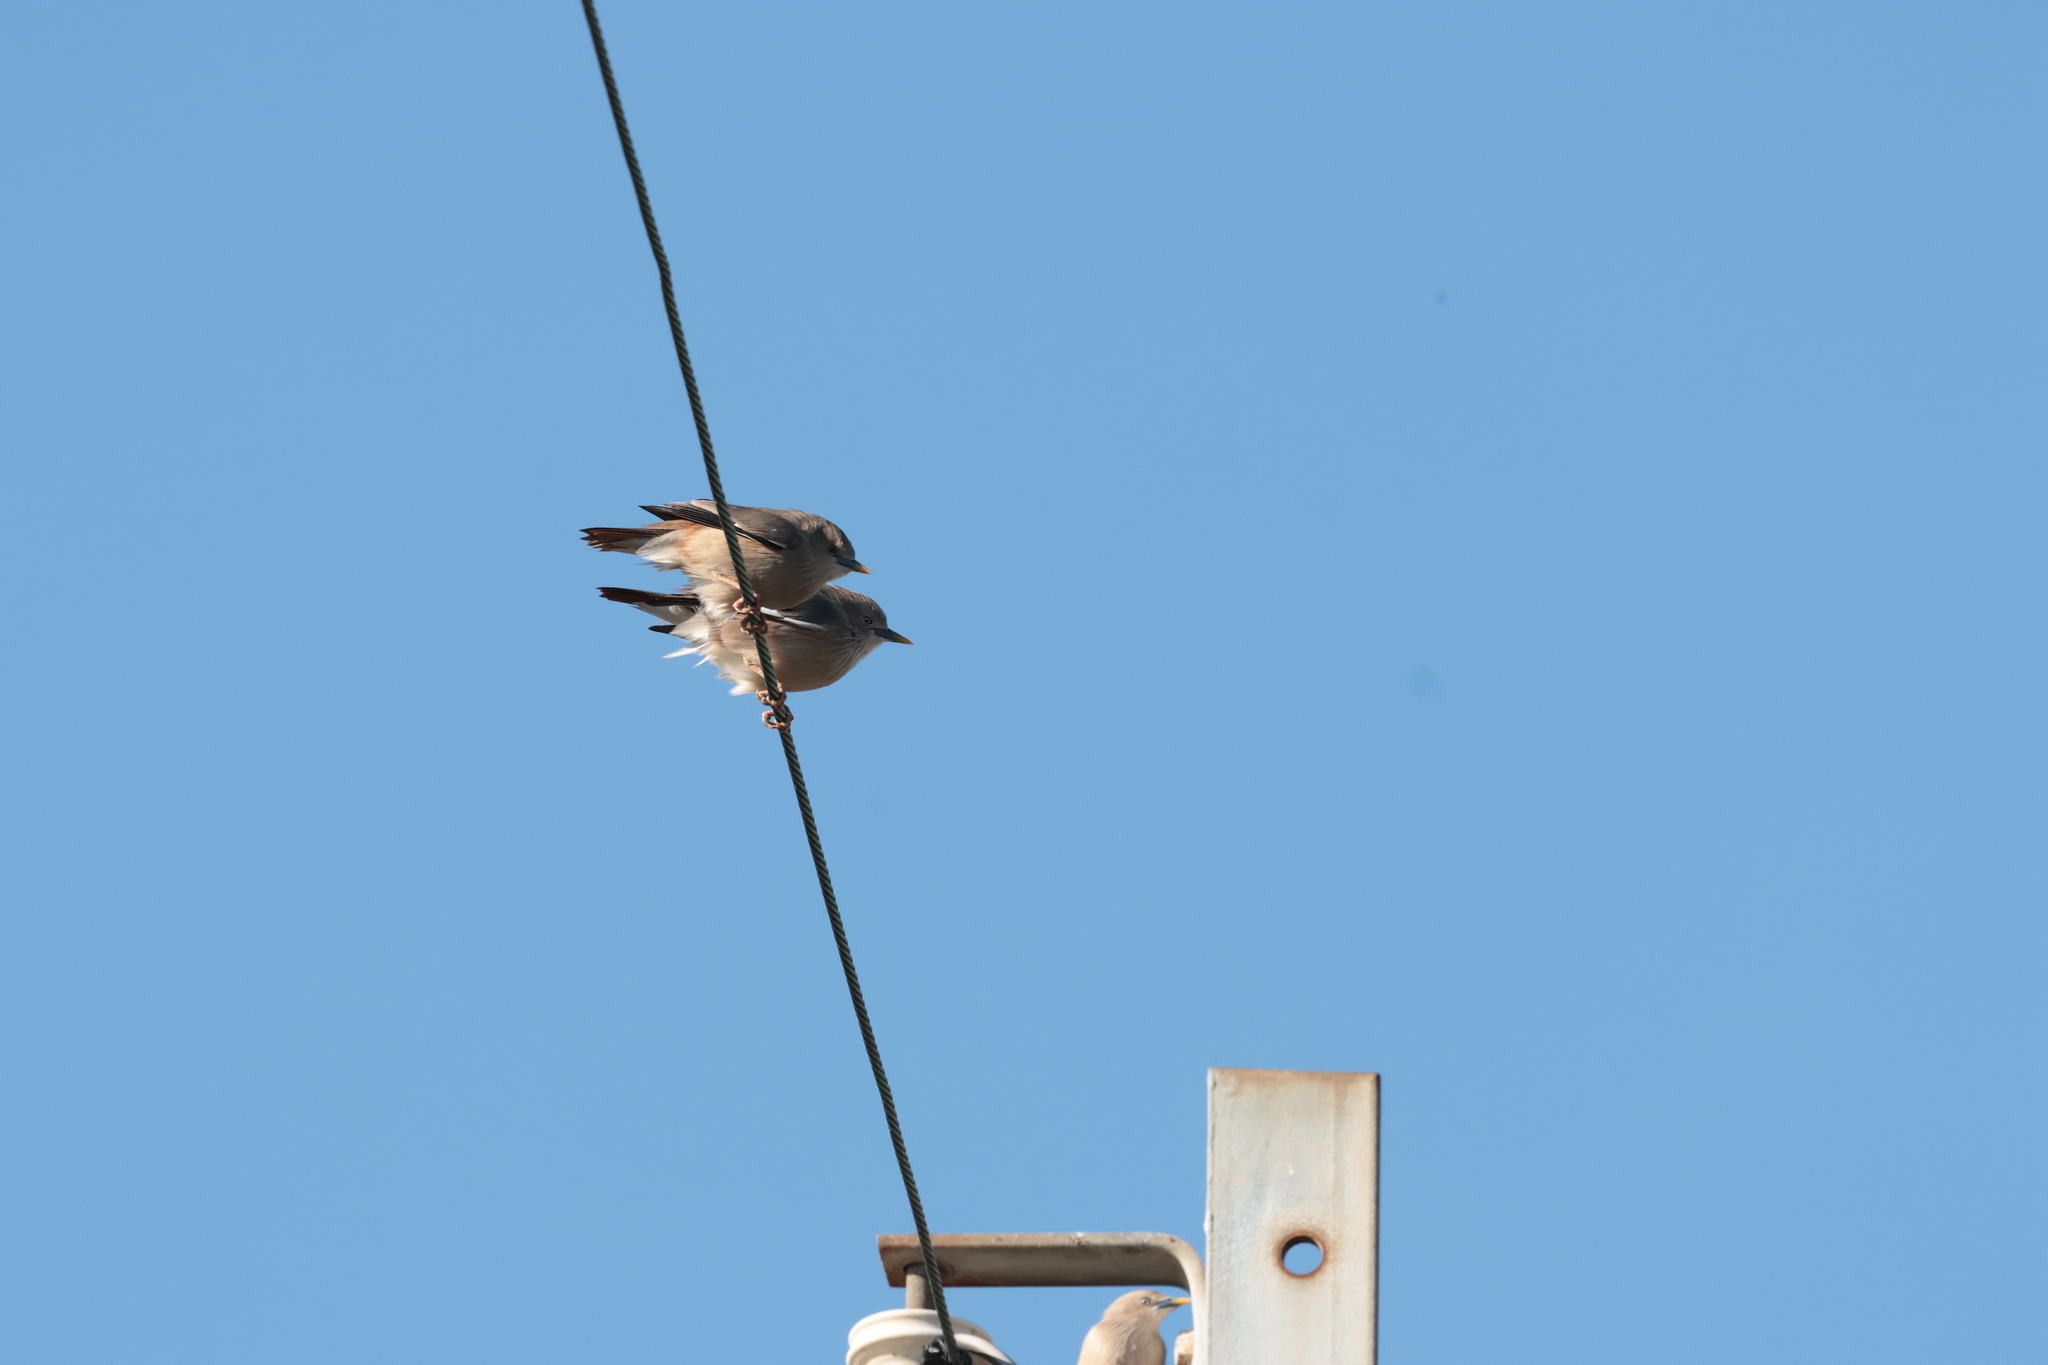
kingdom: Animalia
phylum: Chordata
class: Aves
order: Passeriformes
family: Sturnidae
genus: Sturnia
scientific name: Sturnia malabarica
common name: Chestnut-tailed starling
